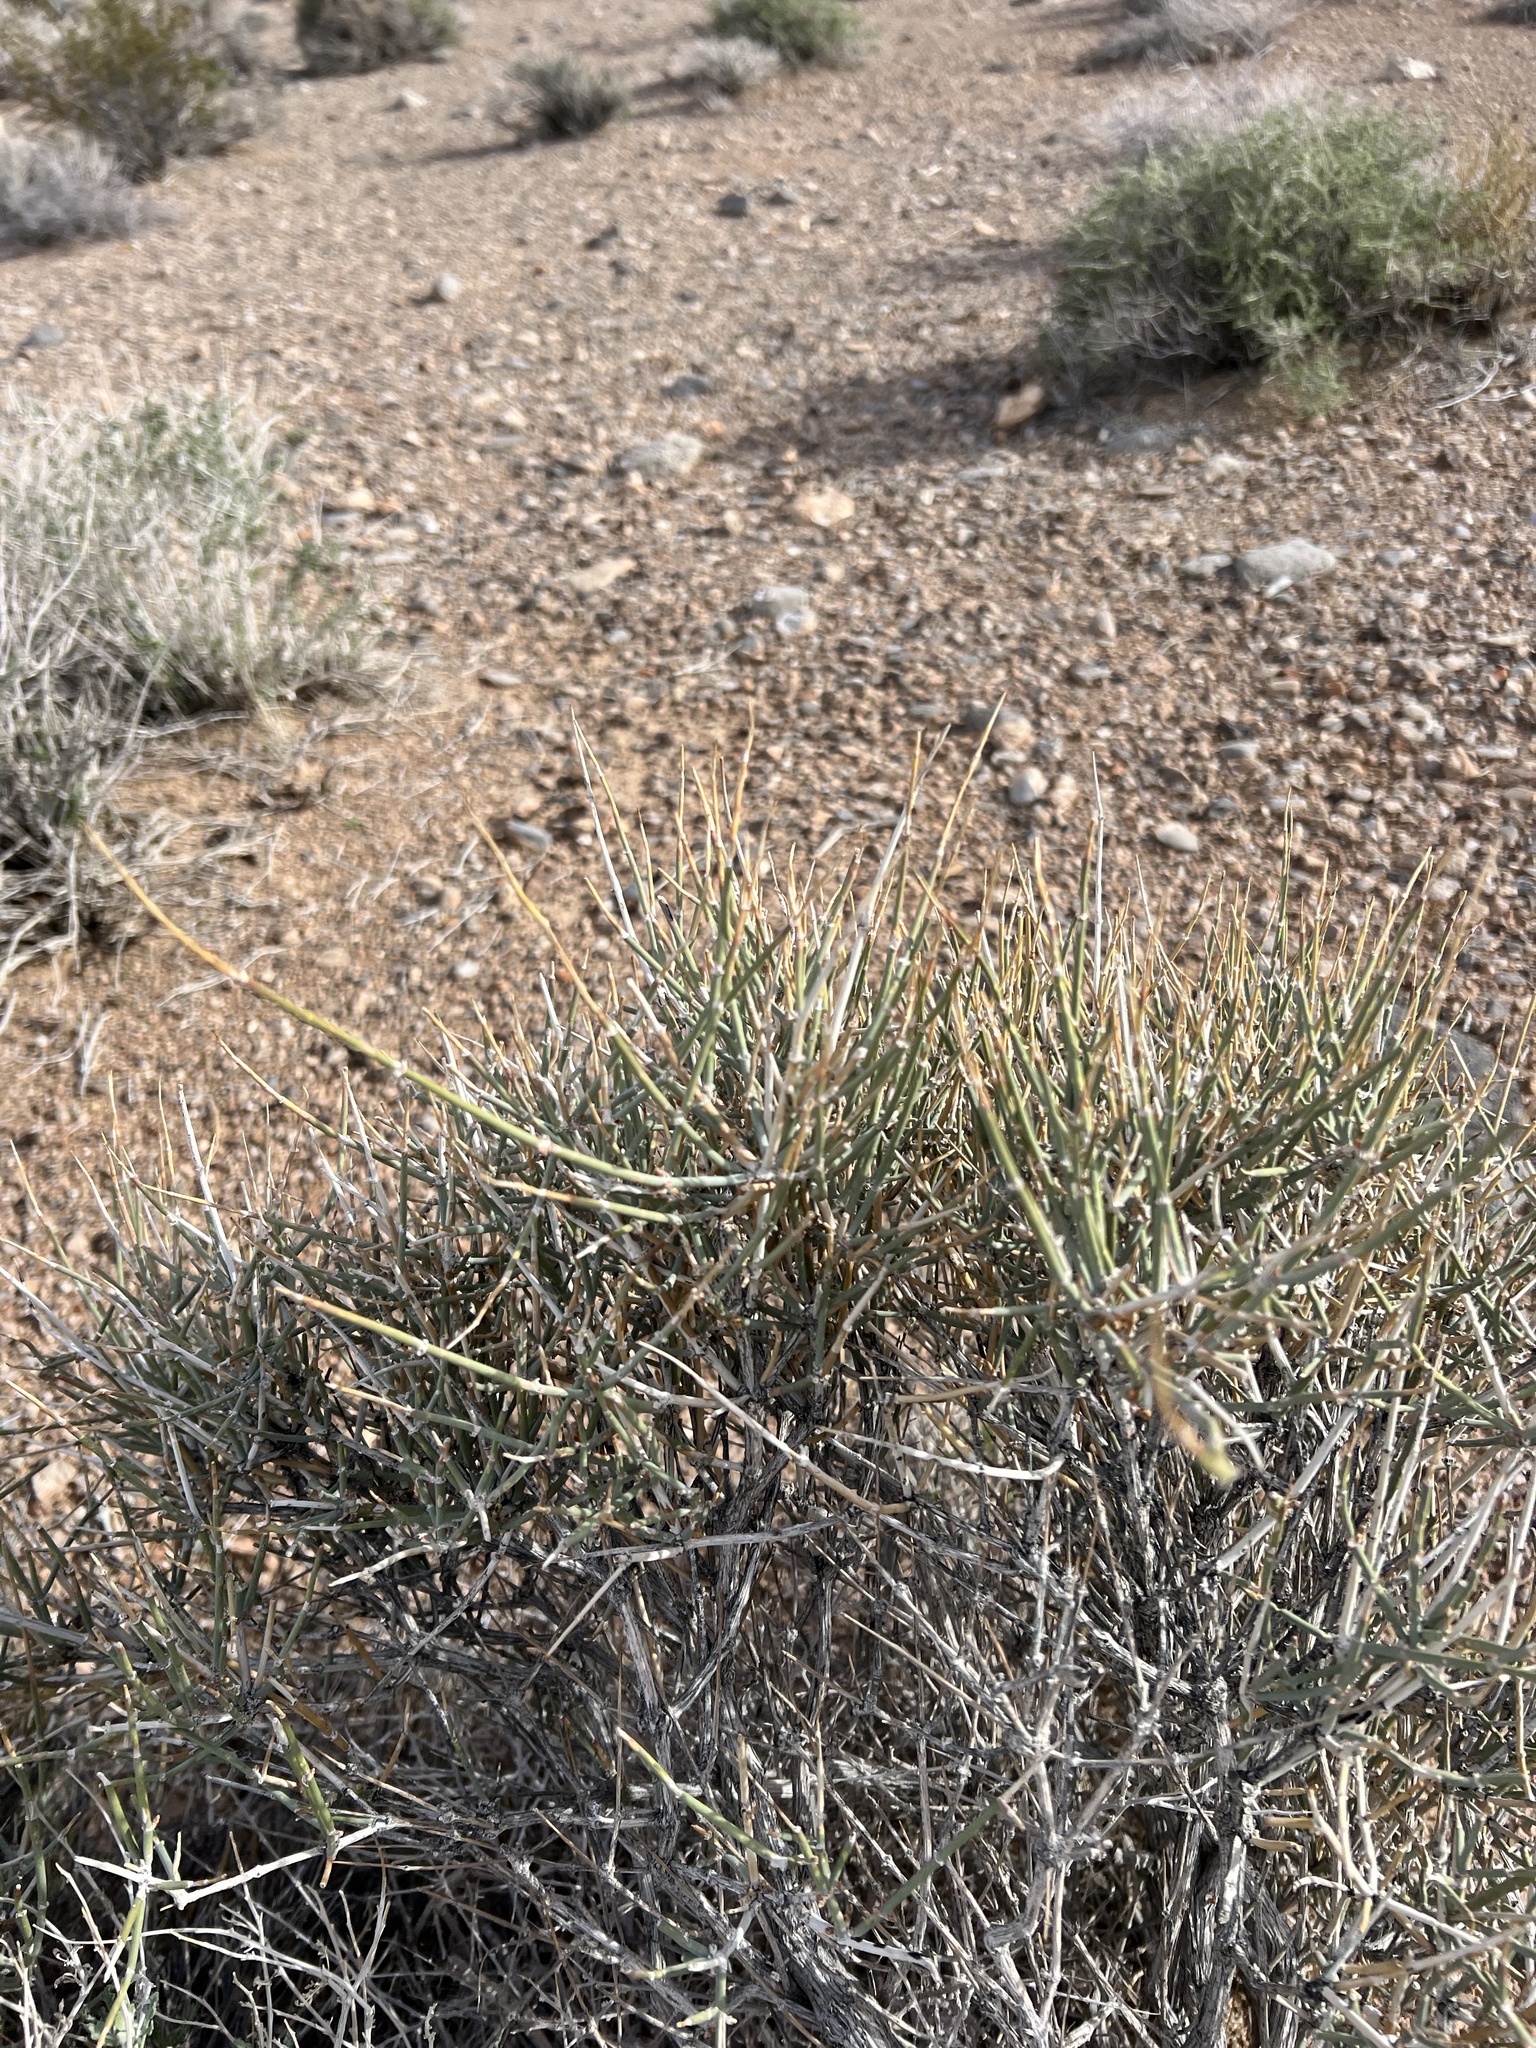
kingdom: Plantae
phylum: Tracheophyta
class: Gnetopsida
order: Ephedrales
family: Ephedraceae
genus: Ephedra
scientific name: Ephedra nevadensis
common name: Gray ephedra
